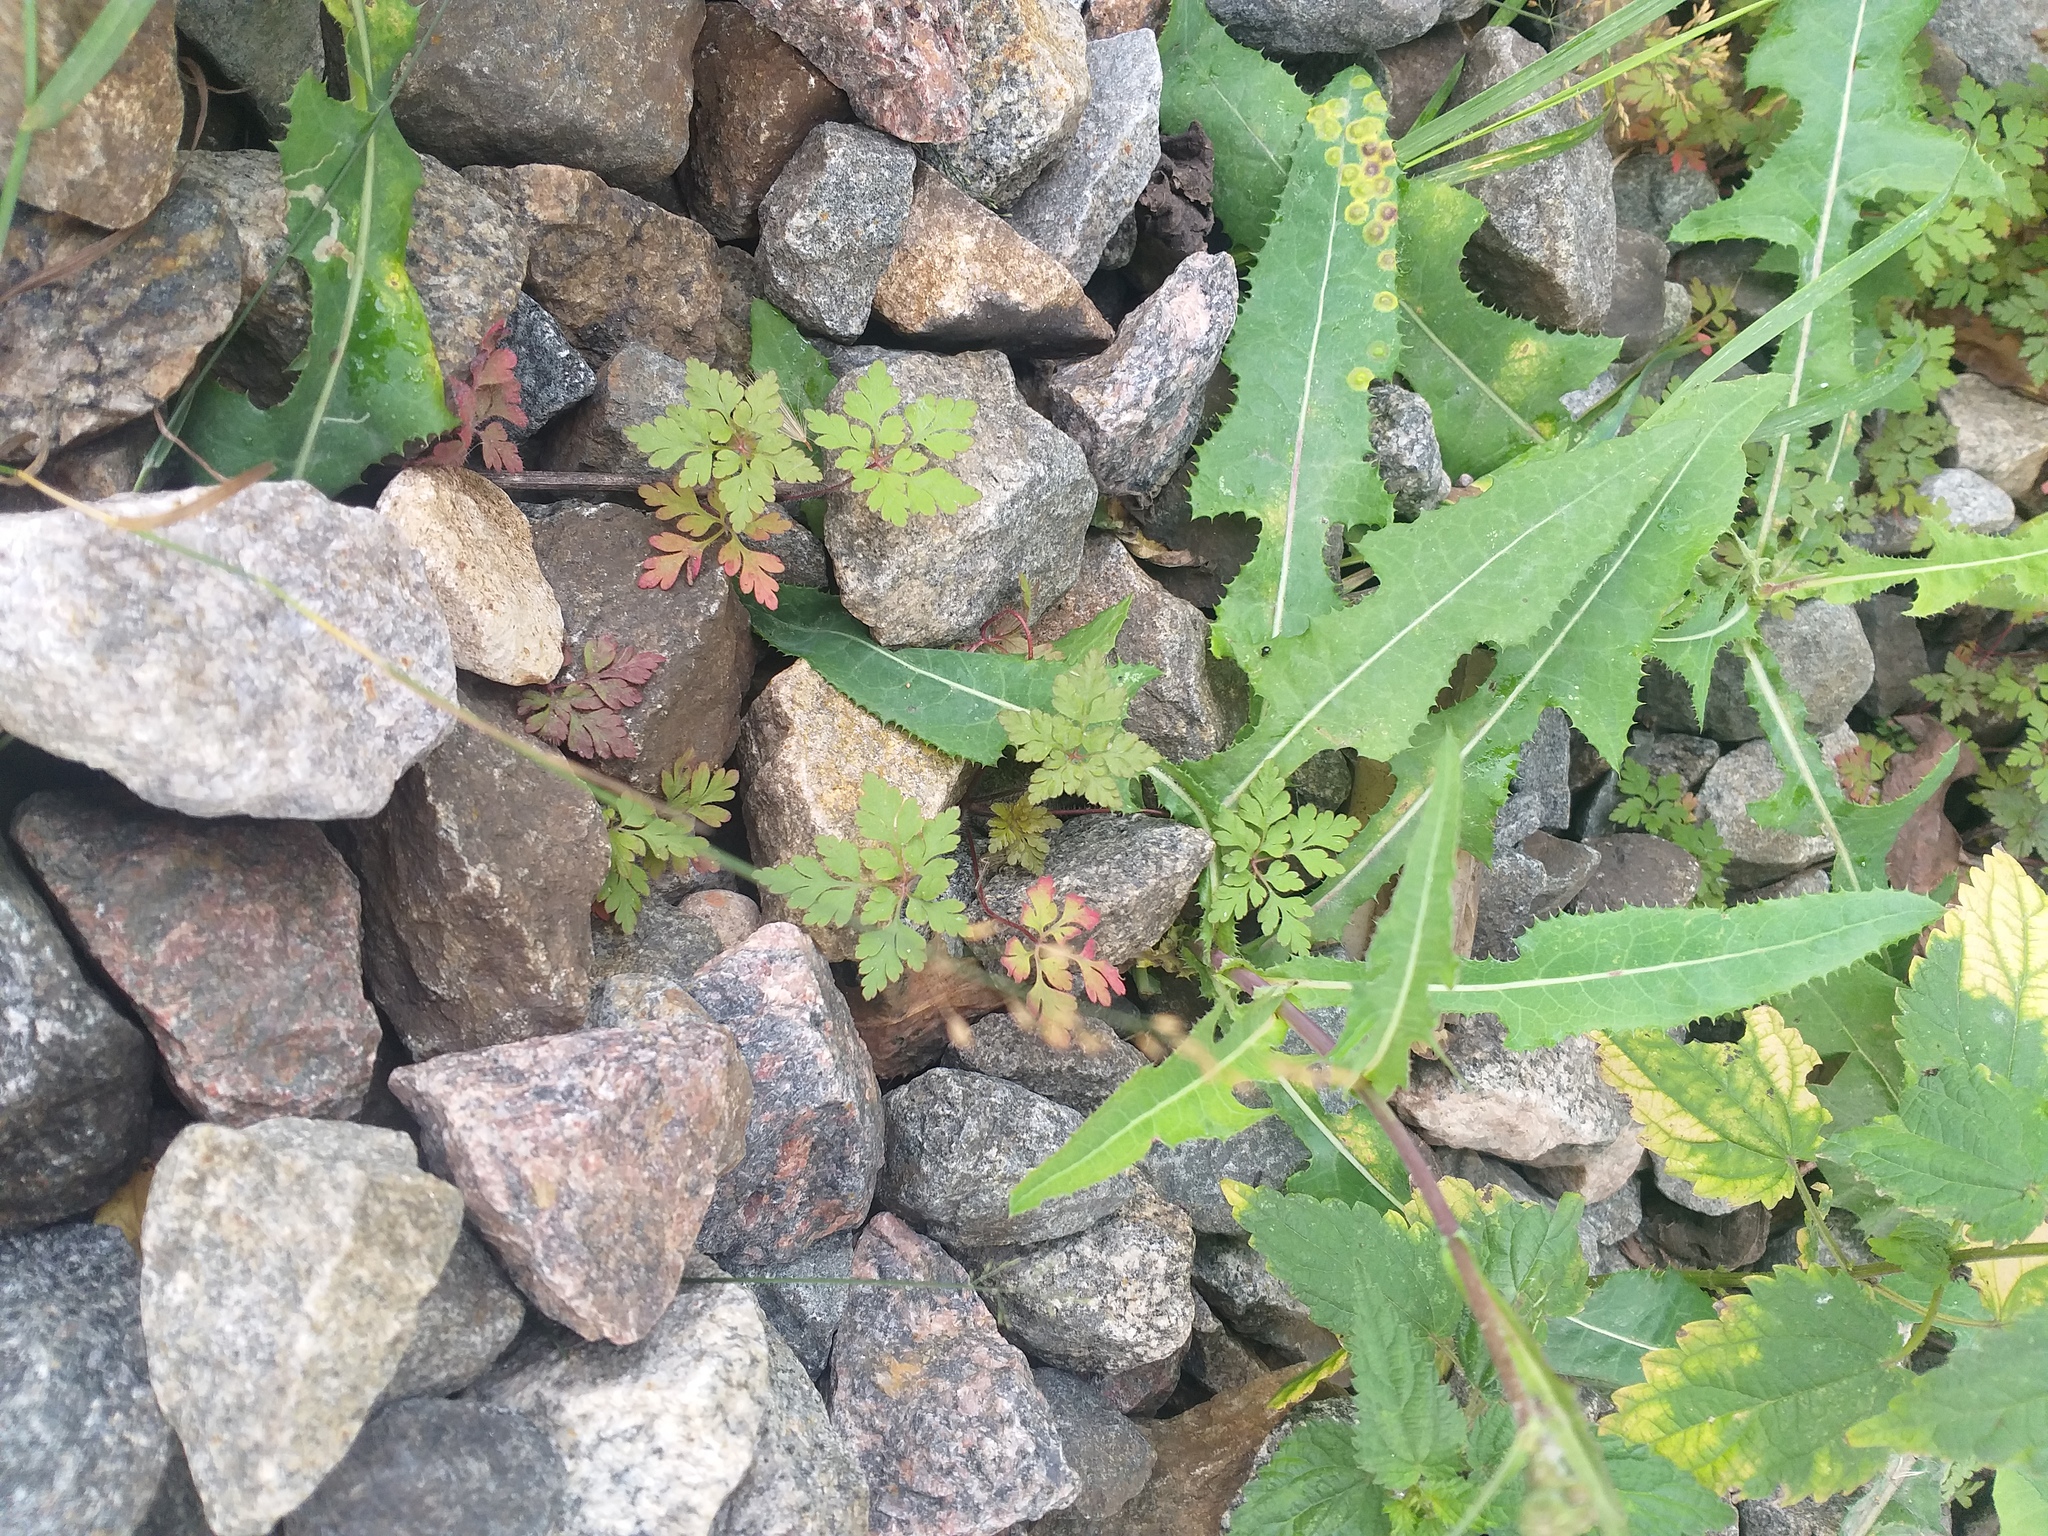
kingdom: Plantae
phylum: Tracheophyta
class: Magnoliopsida
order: Geraniales
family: Geraniaceae
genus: Geranium
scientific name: Geranium robertianum
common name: Herb-robert
